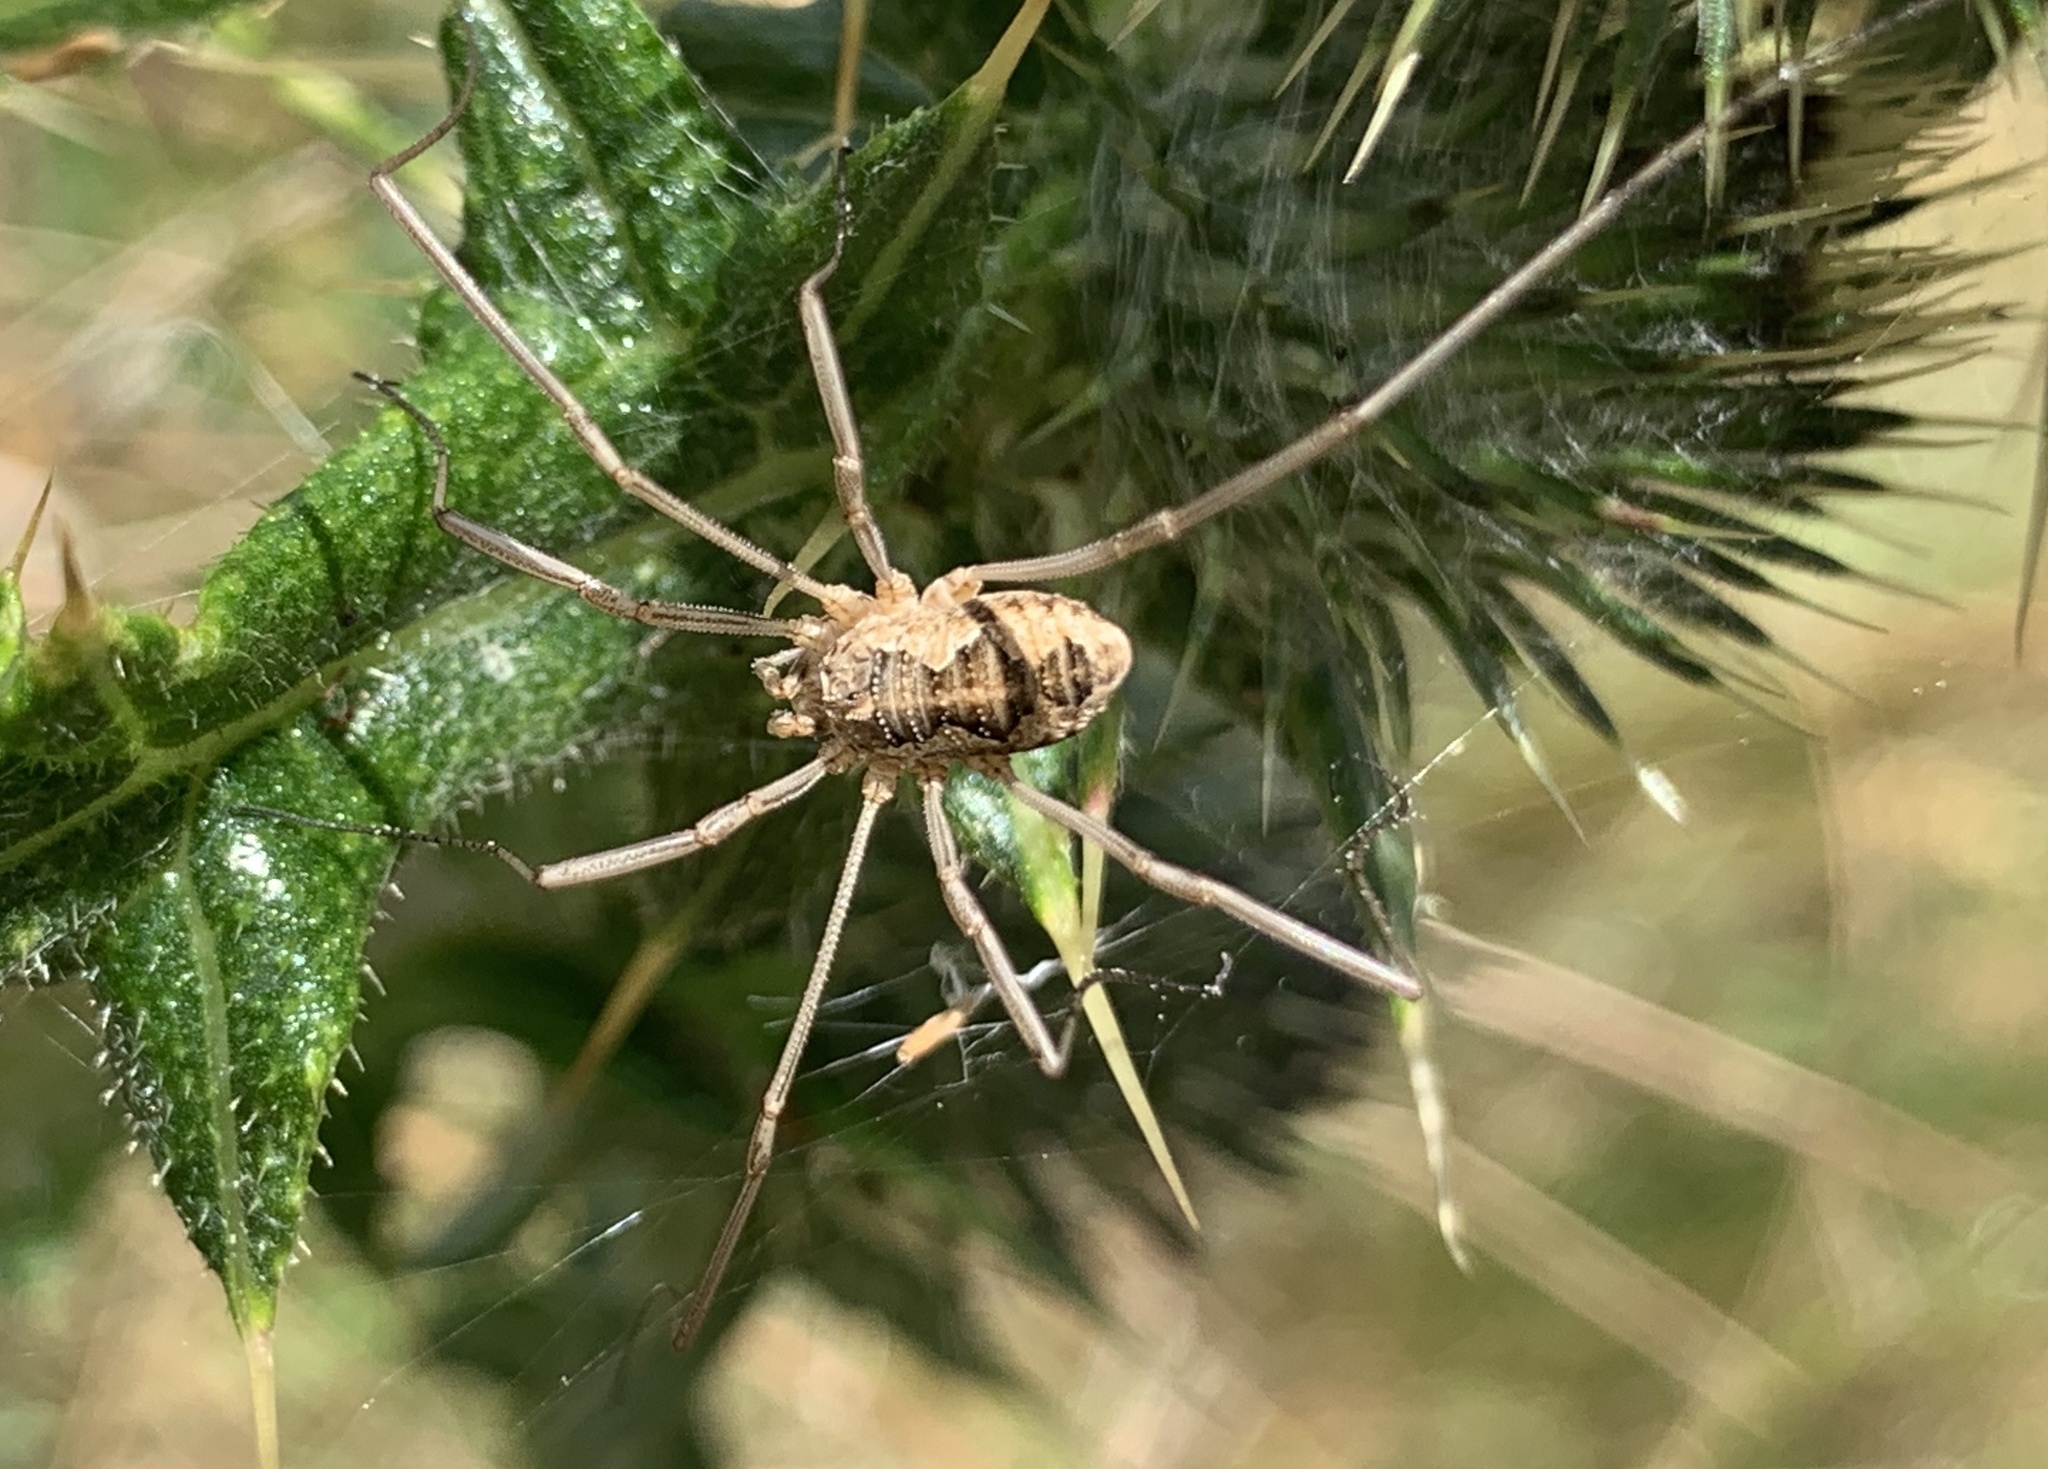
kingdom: Animalia
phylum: Arthropoda
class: Arachnida
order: Opiliones
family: Phalangiidae
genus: Phalangium
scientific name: Phalangium opilio
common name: Daddy longleg
